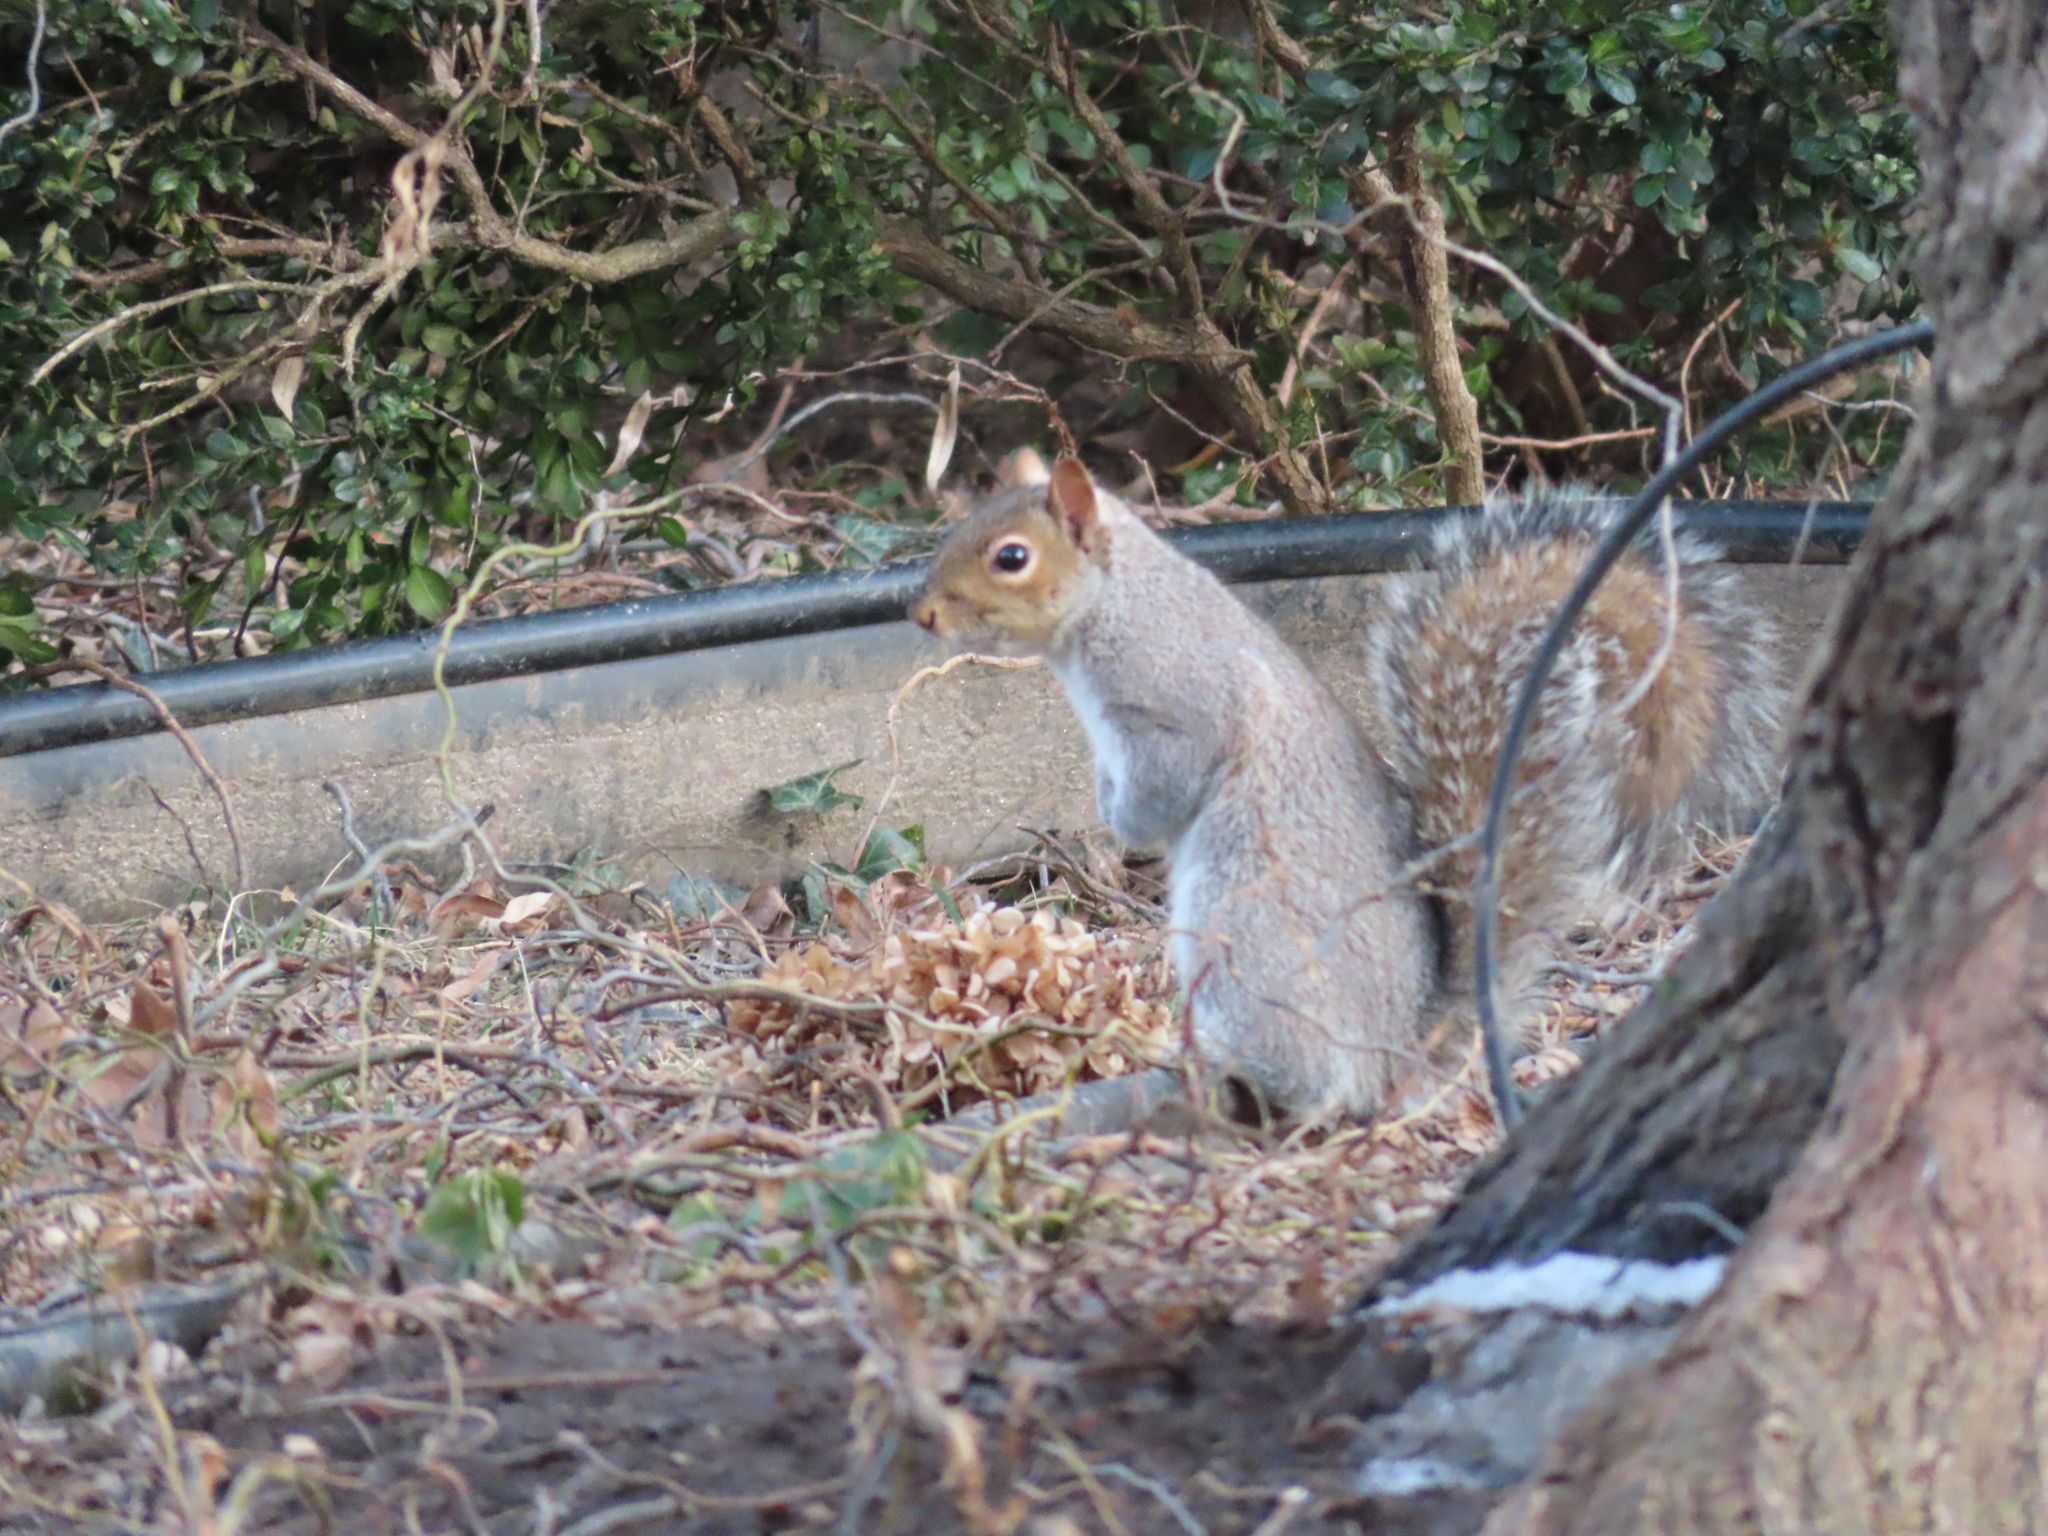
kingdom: Animalia
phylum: Chordata
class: Mammalia
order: Rodentia
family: Sciuridae
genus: Sciurus
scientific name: Sciurus carolinensis
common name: Eastern gray squirrel
